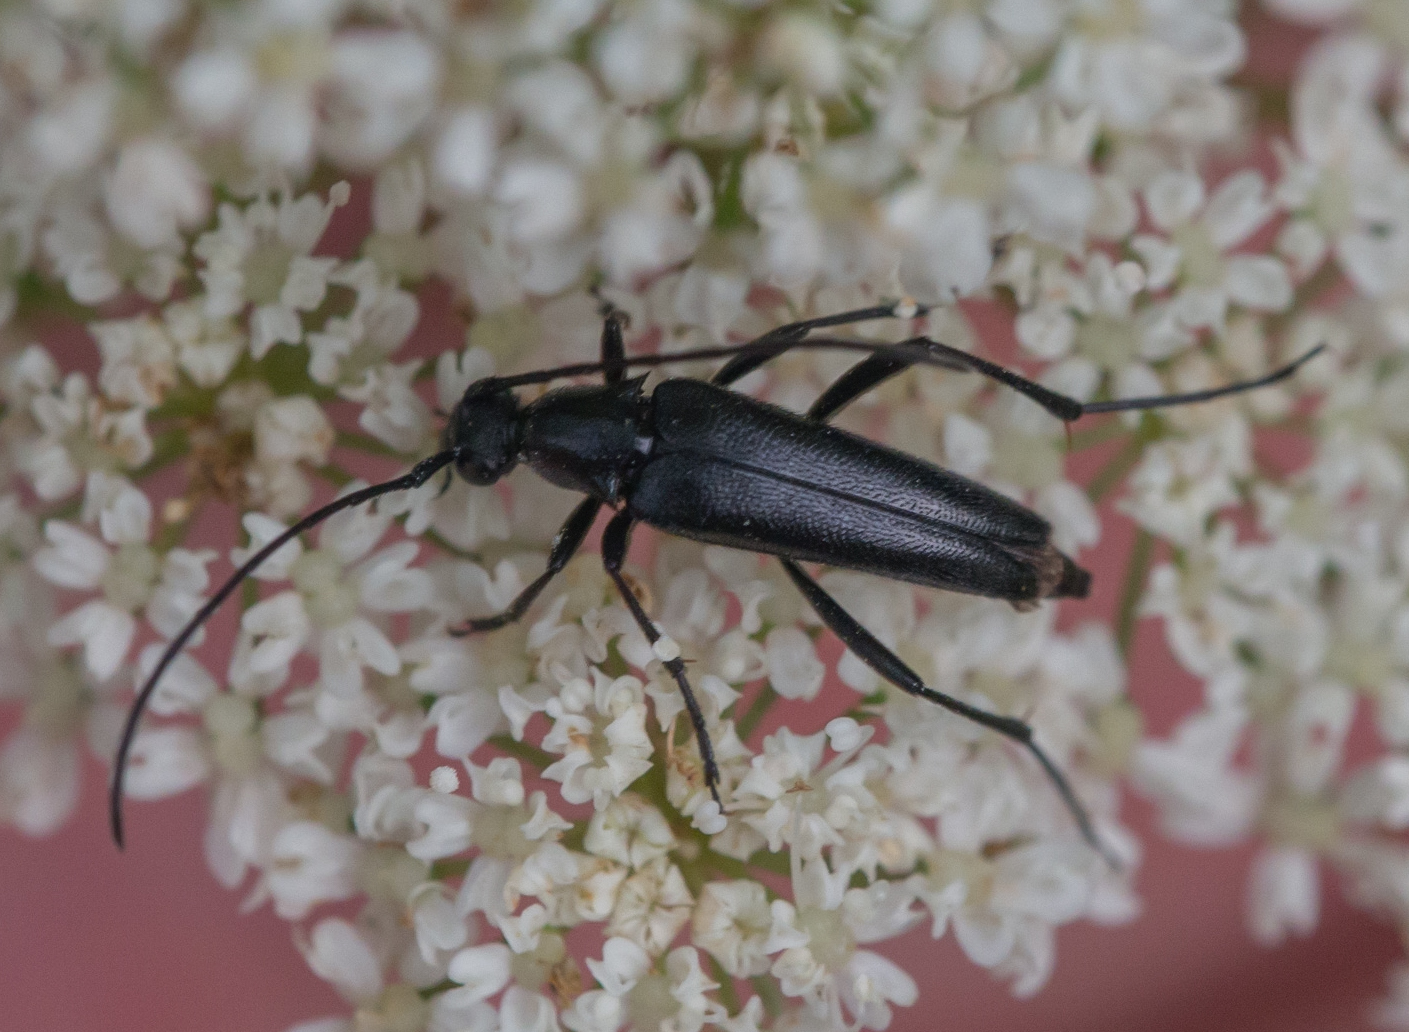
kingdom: Animalia
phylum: Arthropoda
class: Insecta
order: Coleoptera
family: Cerambycidae
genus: Stenurella
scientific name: Stenurella nigra
